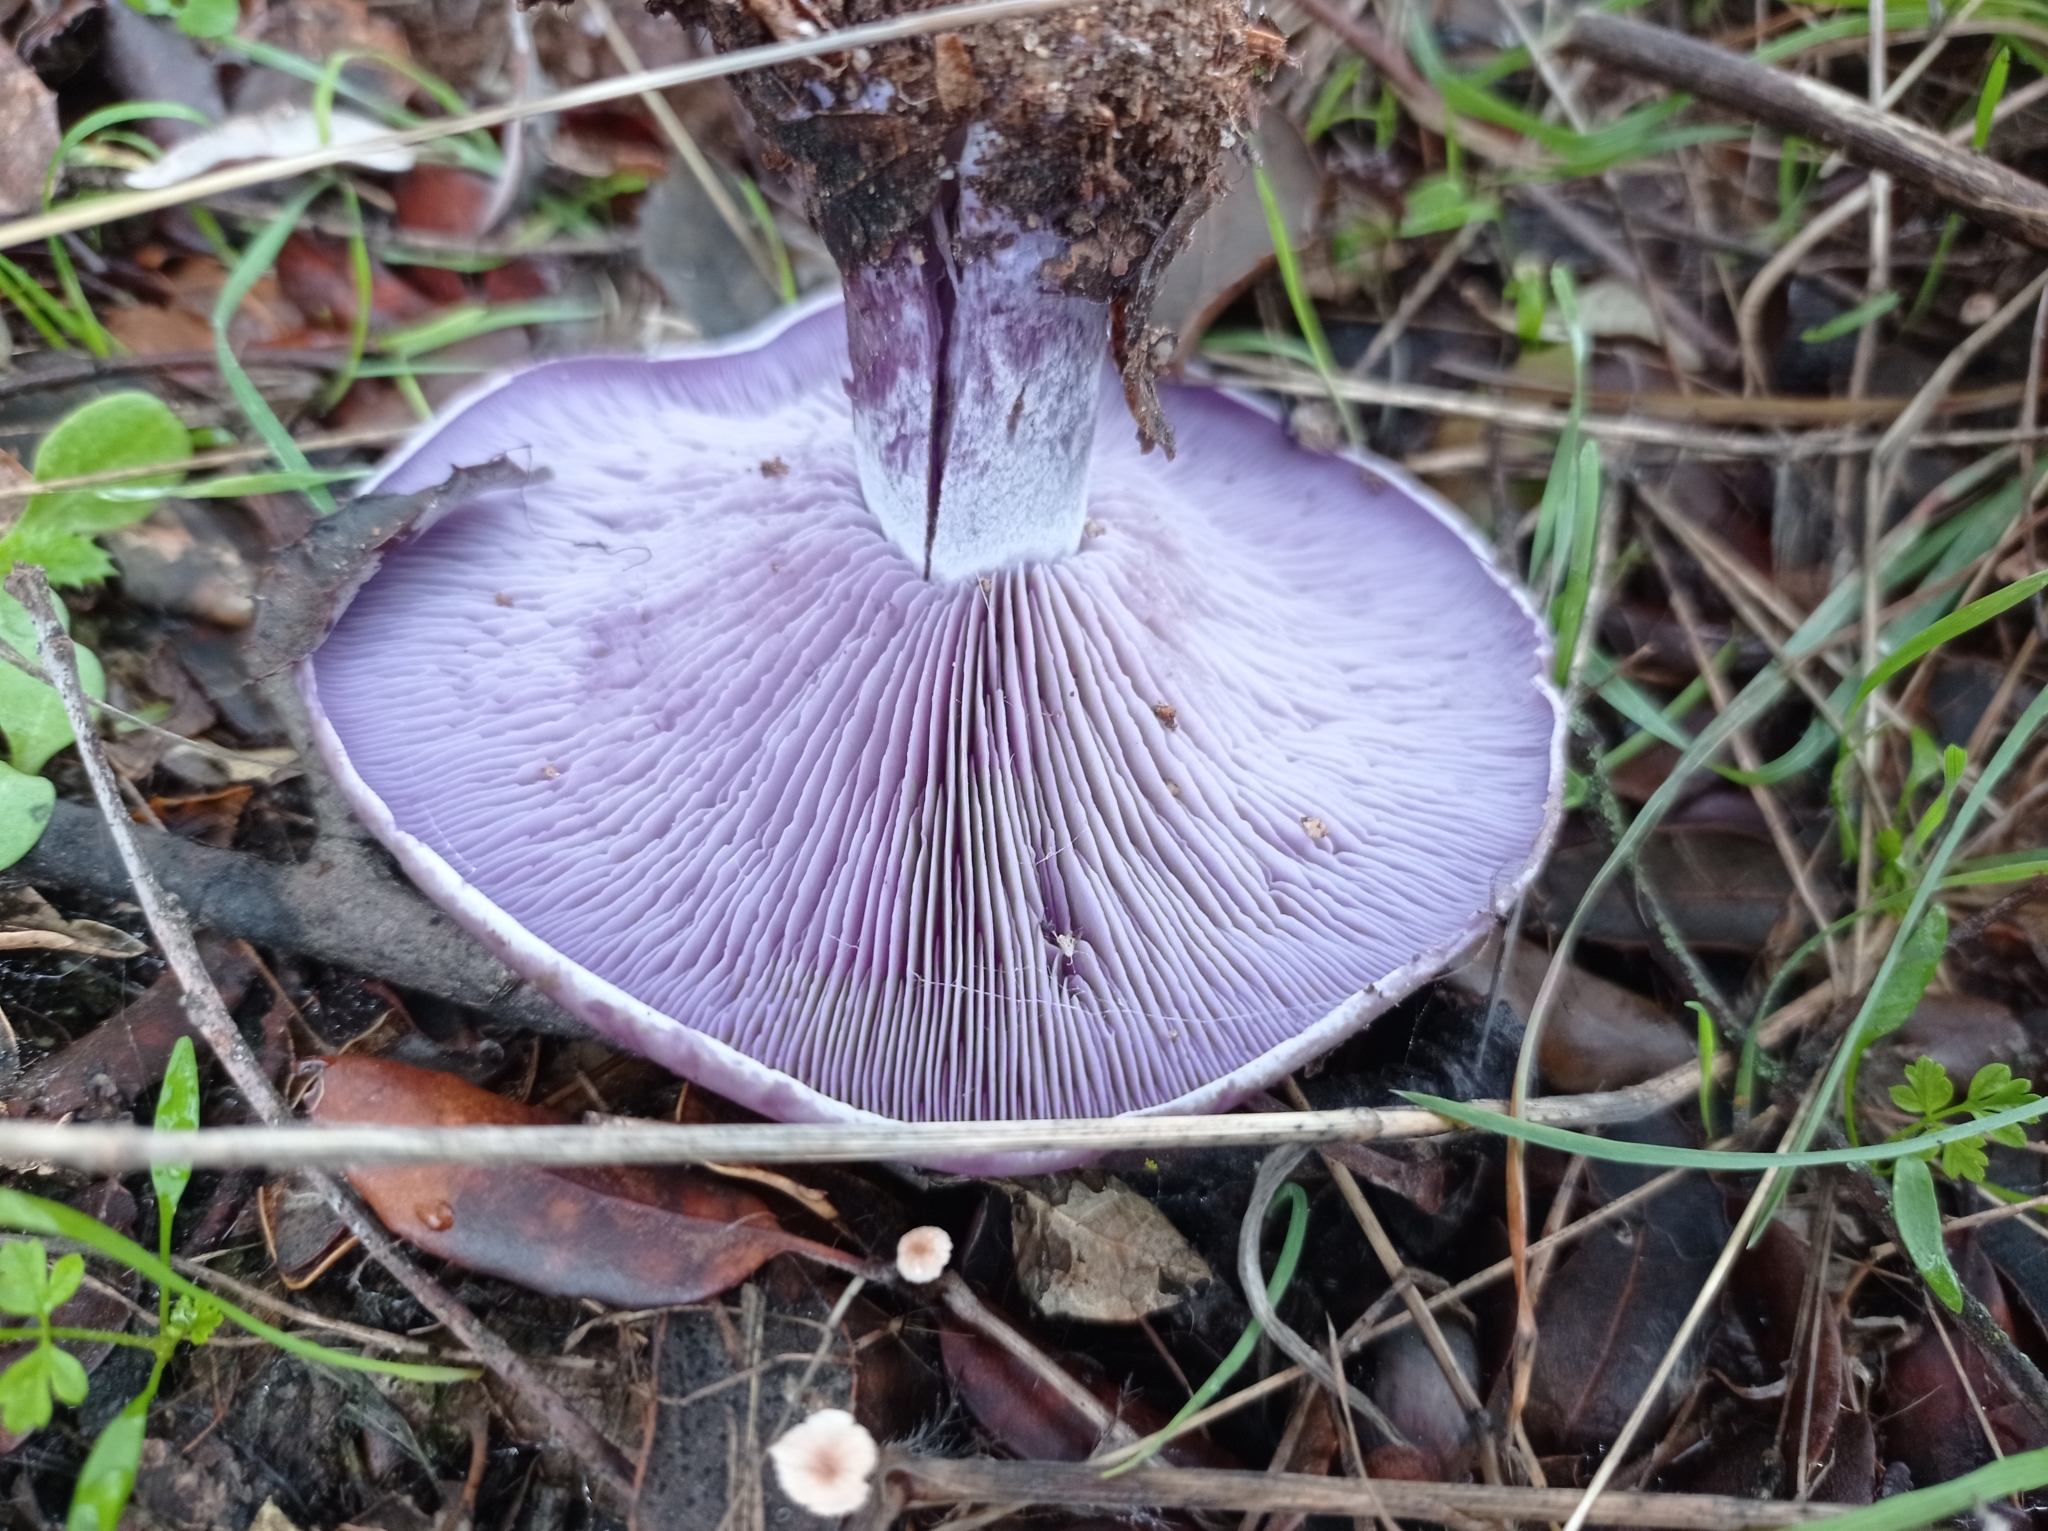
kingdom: Fungi
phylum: Basidiomycota
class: Agaricomycetes
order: Agaricales
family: Tricholomataceae
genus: Collybia
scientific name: Collybia
